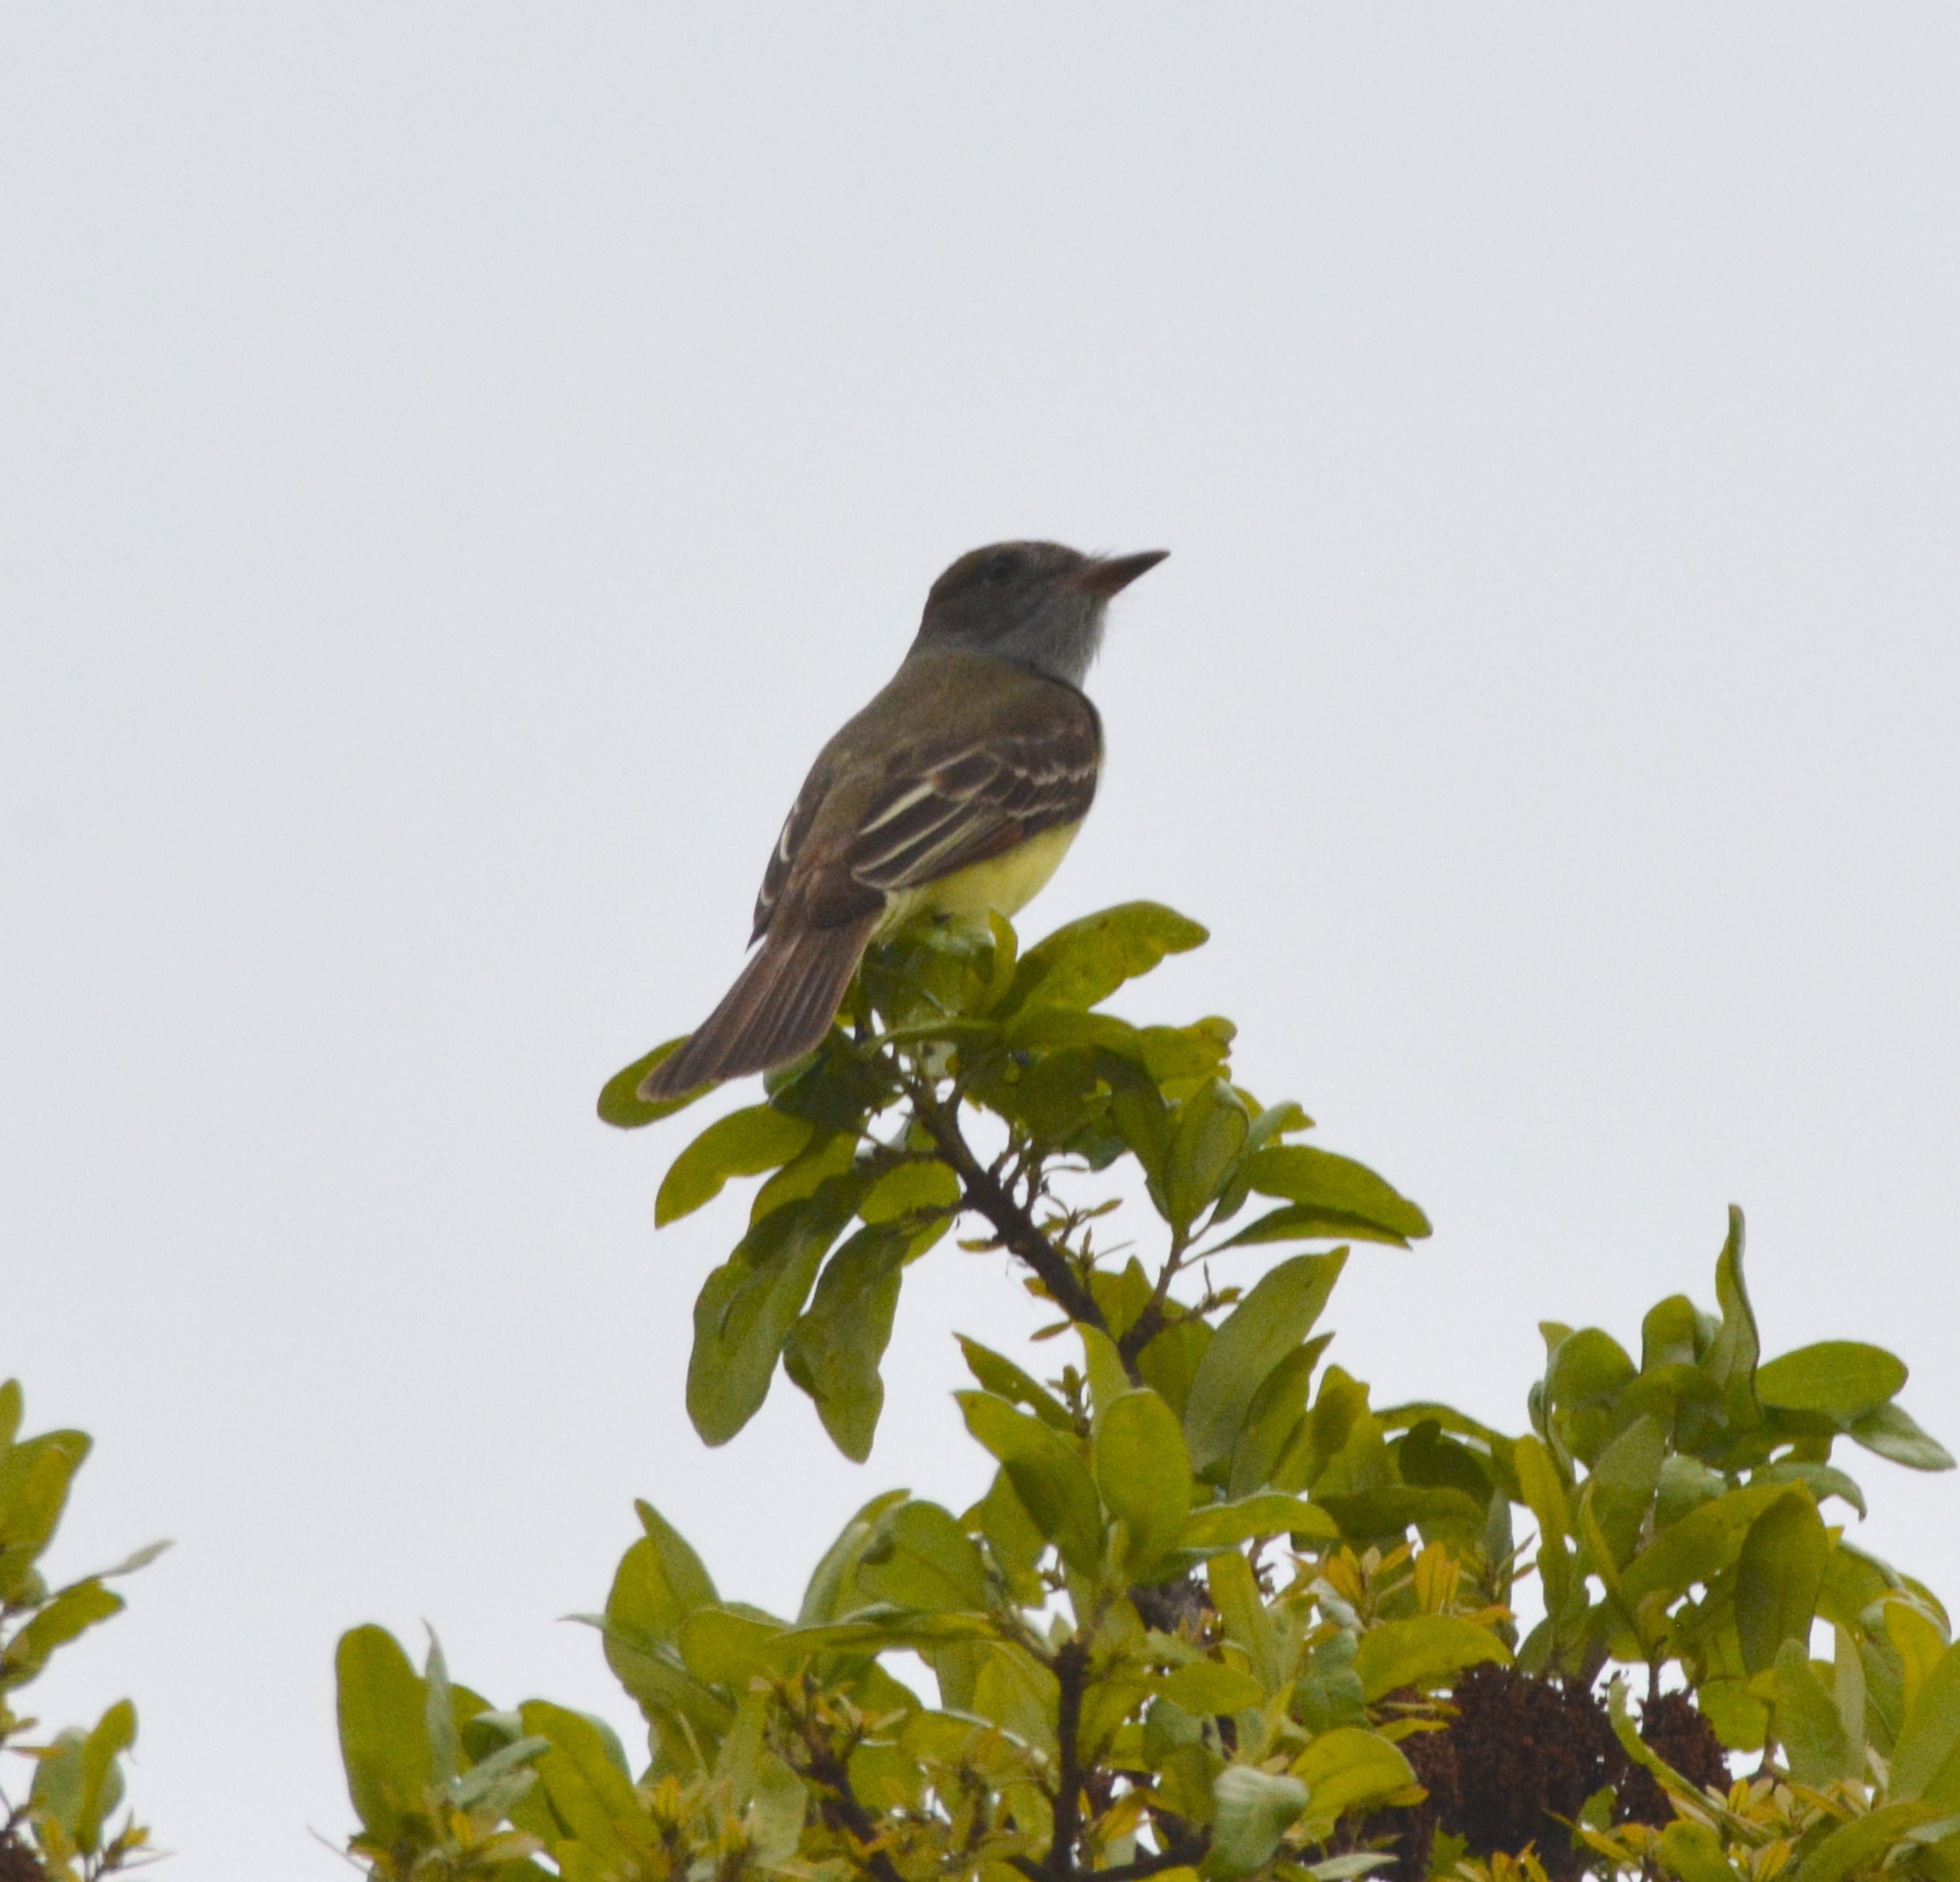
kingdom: Animalia
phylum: Chordata
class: Aves
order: Passeriformes
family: Tyrannidae
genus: Myiarchus
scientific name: Myiarchus crinitus
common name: Great crested flycatcher
